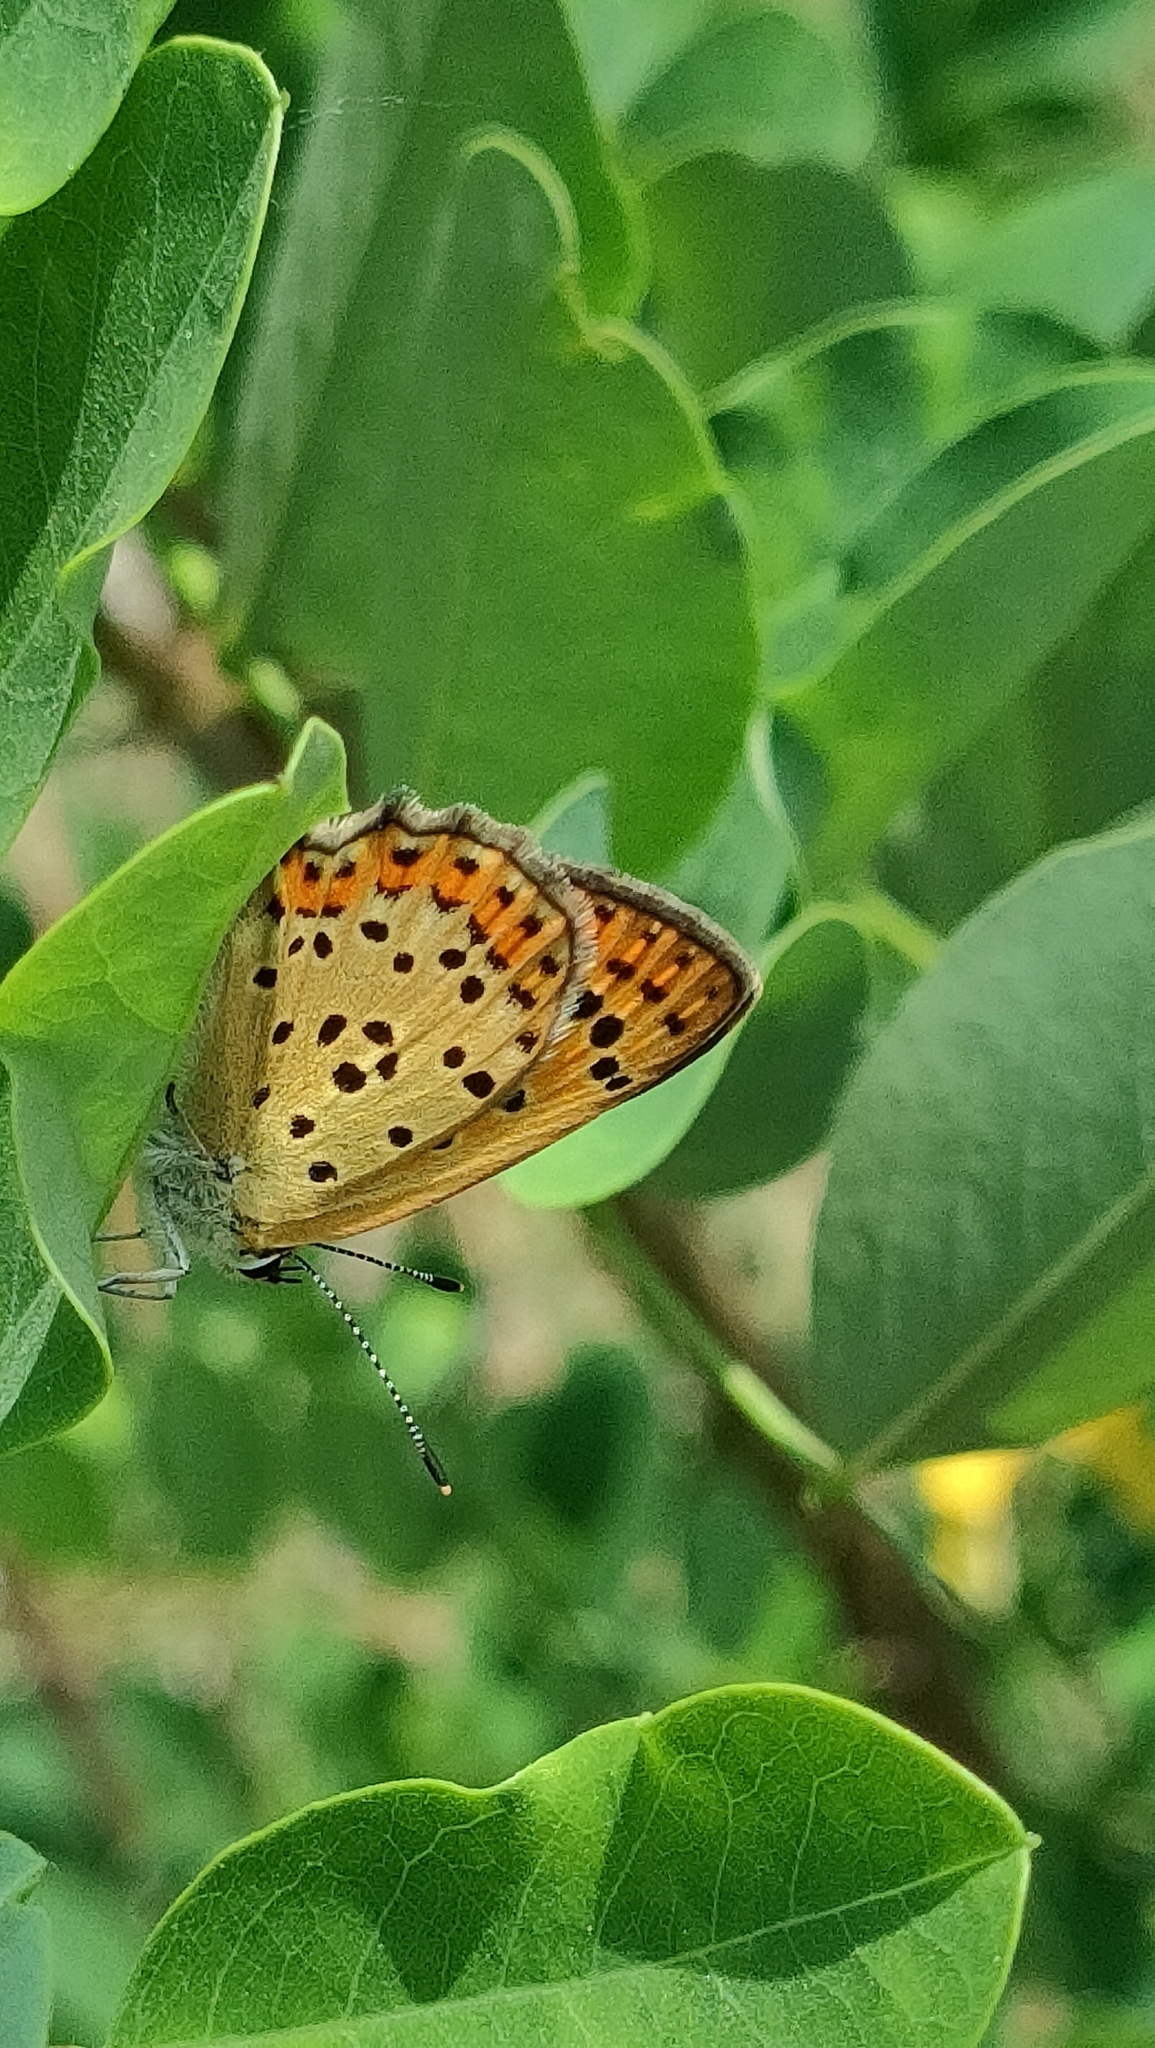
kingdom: Animalia
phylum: Arthropoda
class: Insecta
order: Lepidoptera
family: Lycaenidae
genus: Loweia
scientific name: Loweia tityrus
